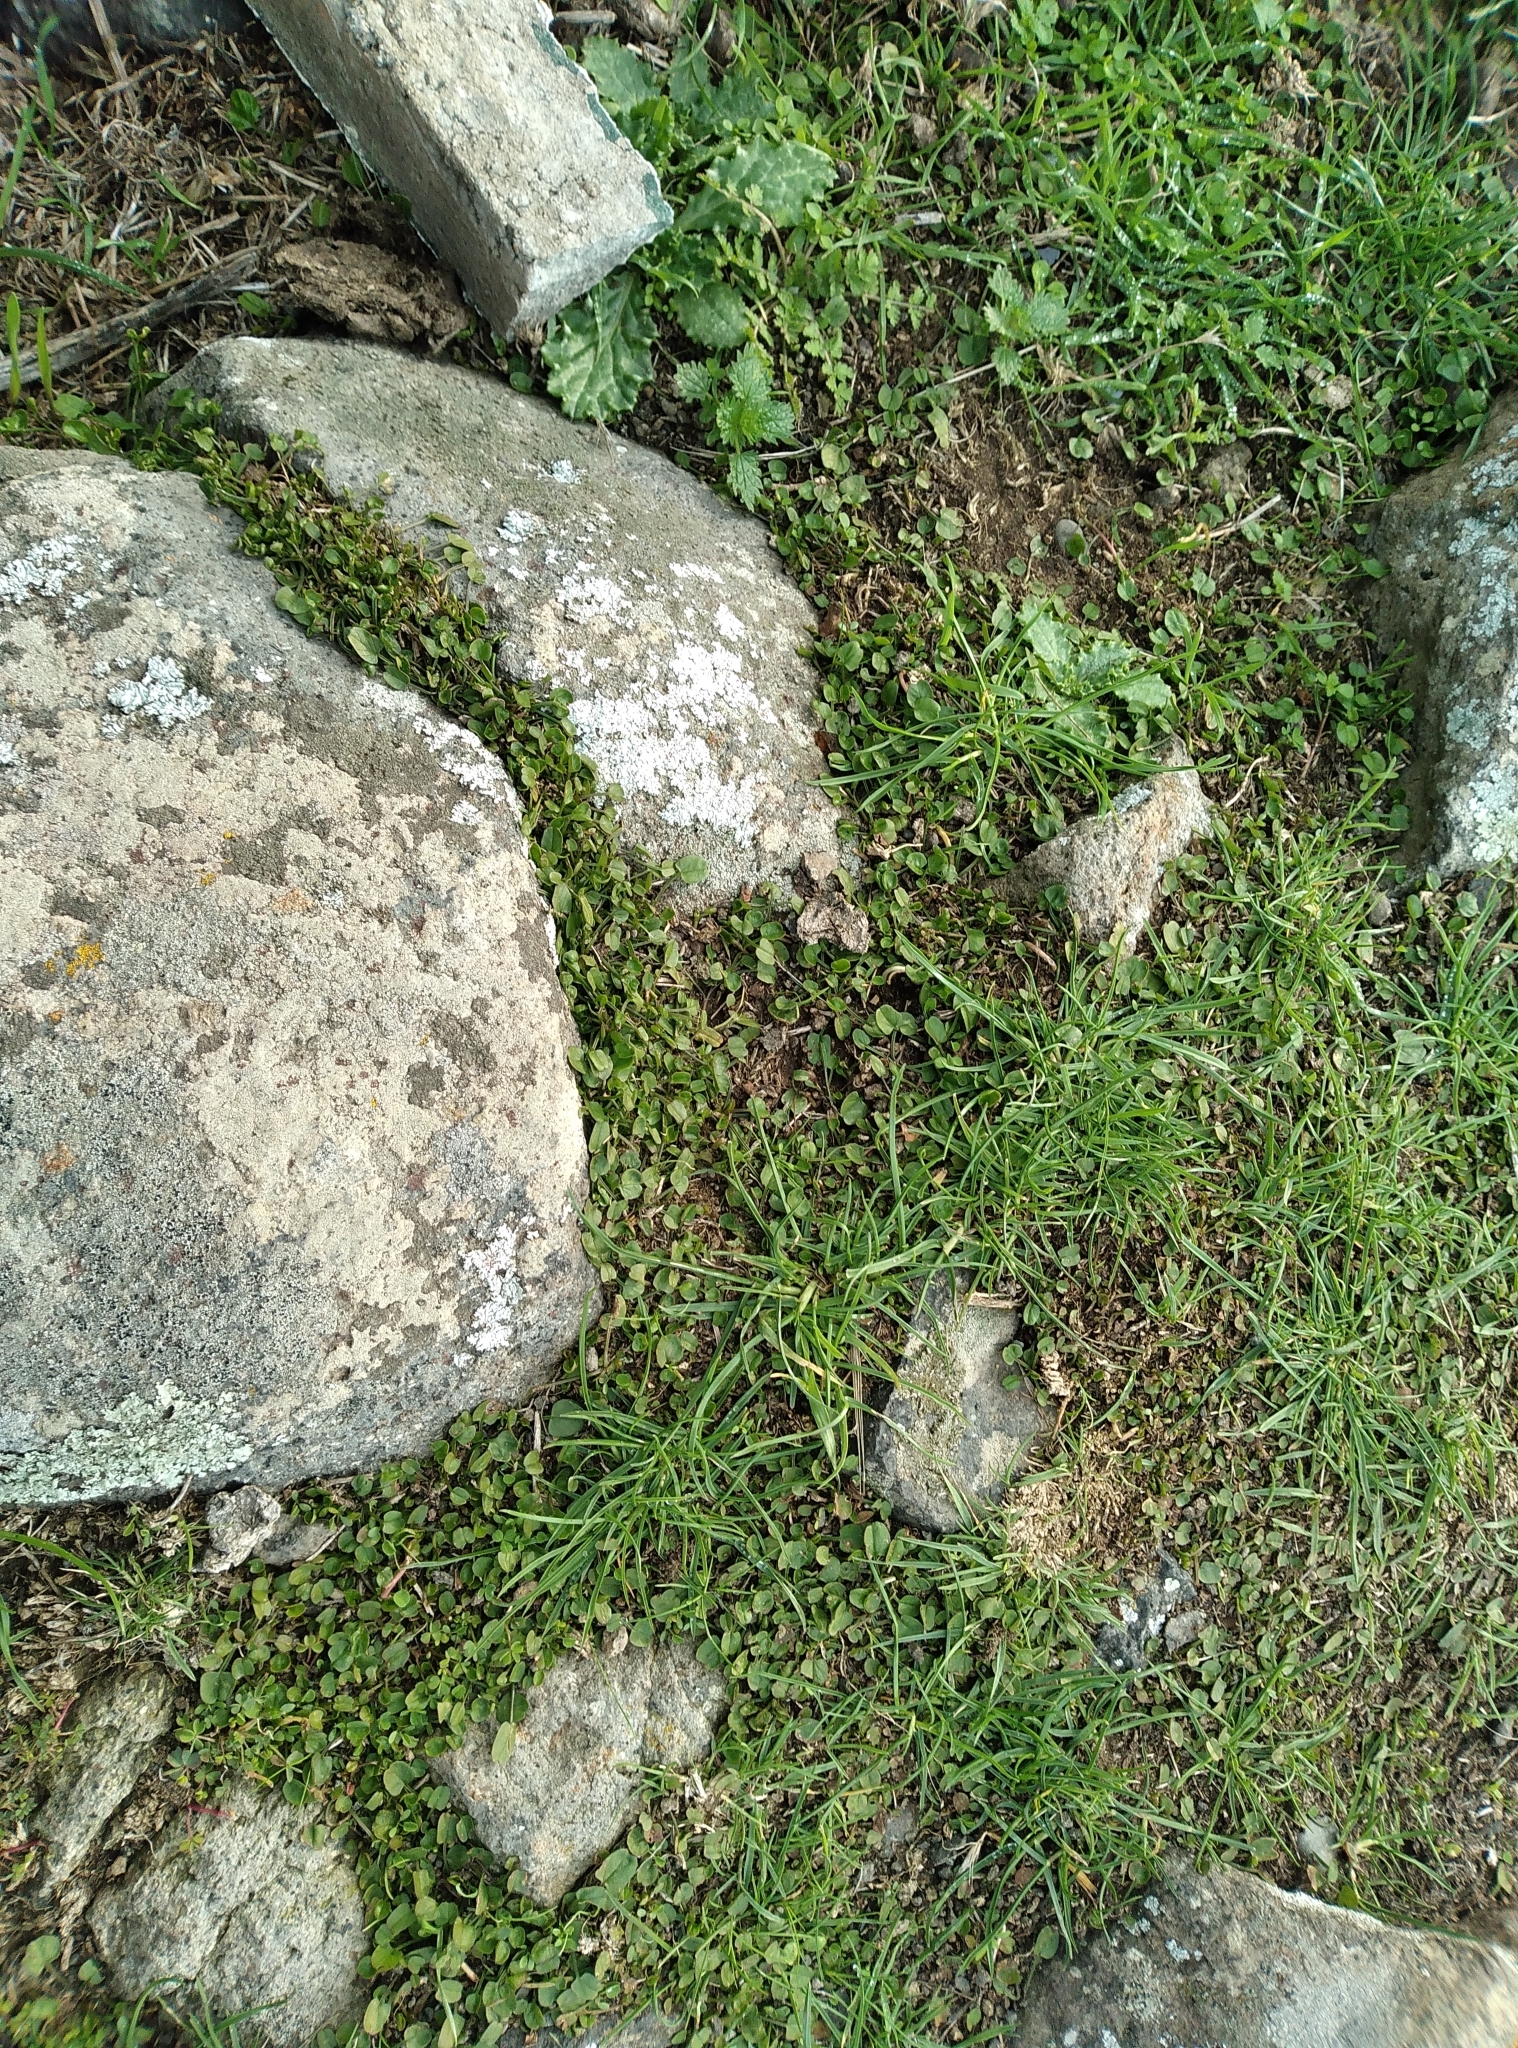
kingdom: Plantae
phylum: Tracheophyta
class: Magnoliopsida
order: Caryophyllales
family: Polygonaceae
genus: Rumex
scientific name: Rumex acetosella
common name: Common sheep sorrel
